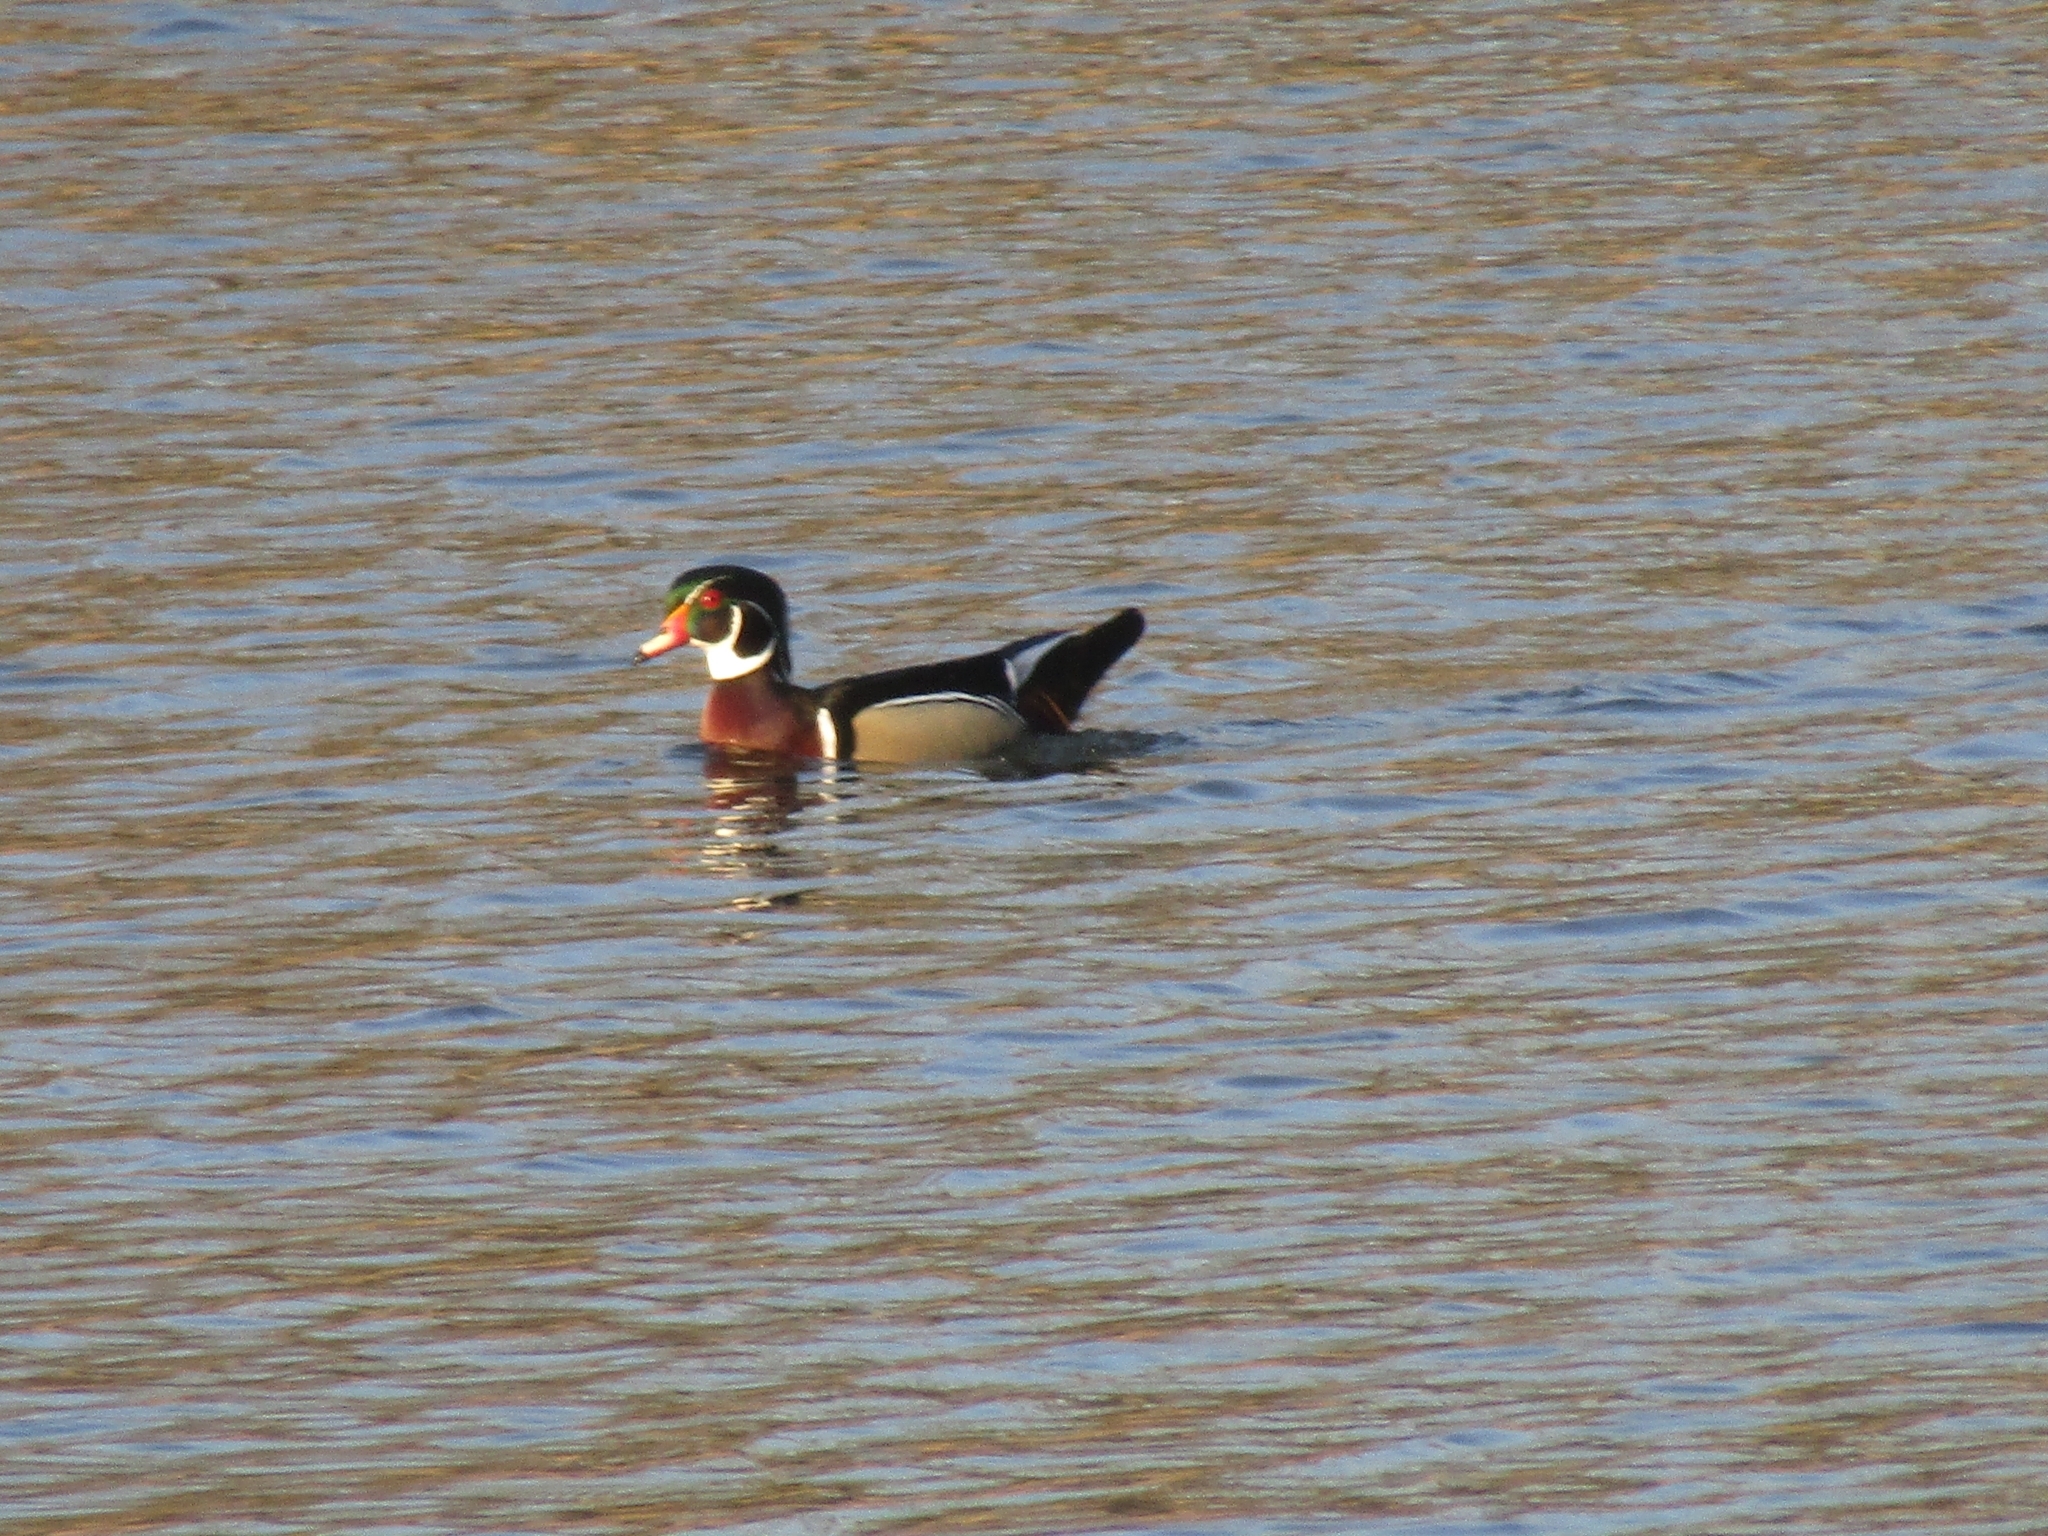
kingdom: Animalia
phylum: Chordata
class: Aves
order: Anseriformes
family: Anatidae
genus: Aix
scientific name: Aix sponsa
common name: Wood duck
